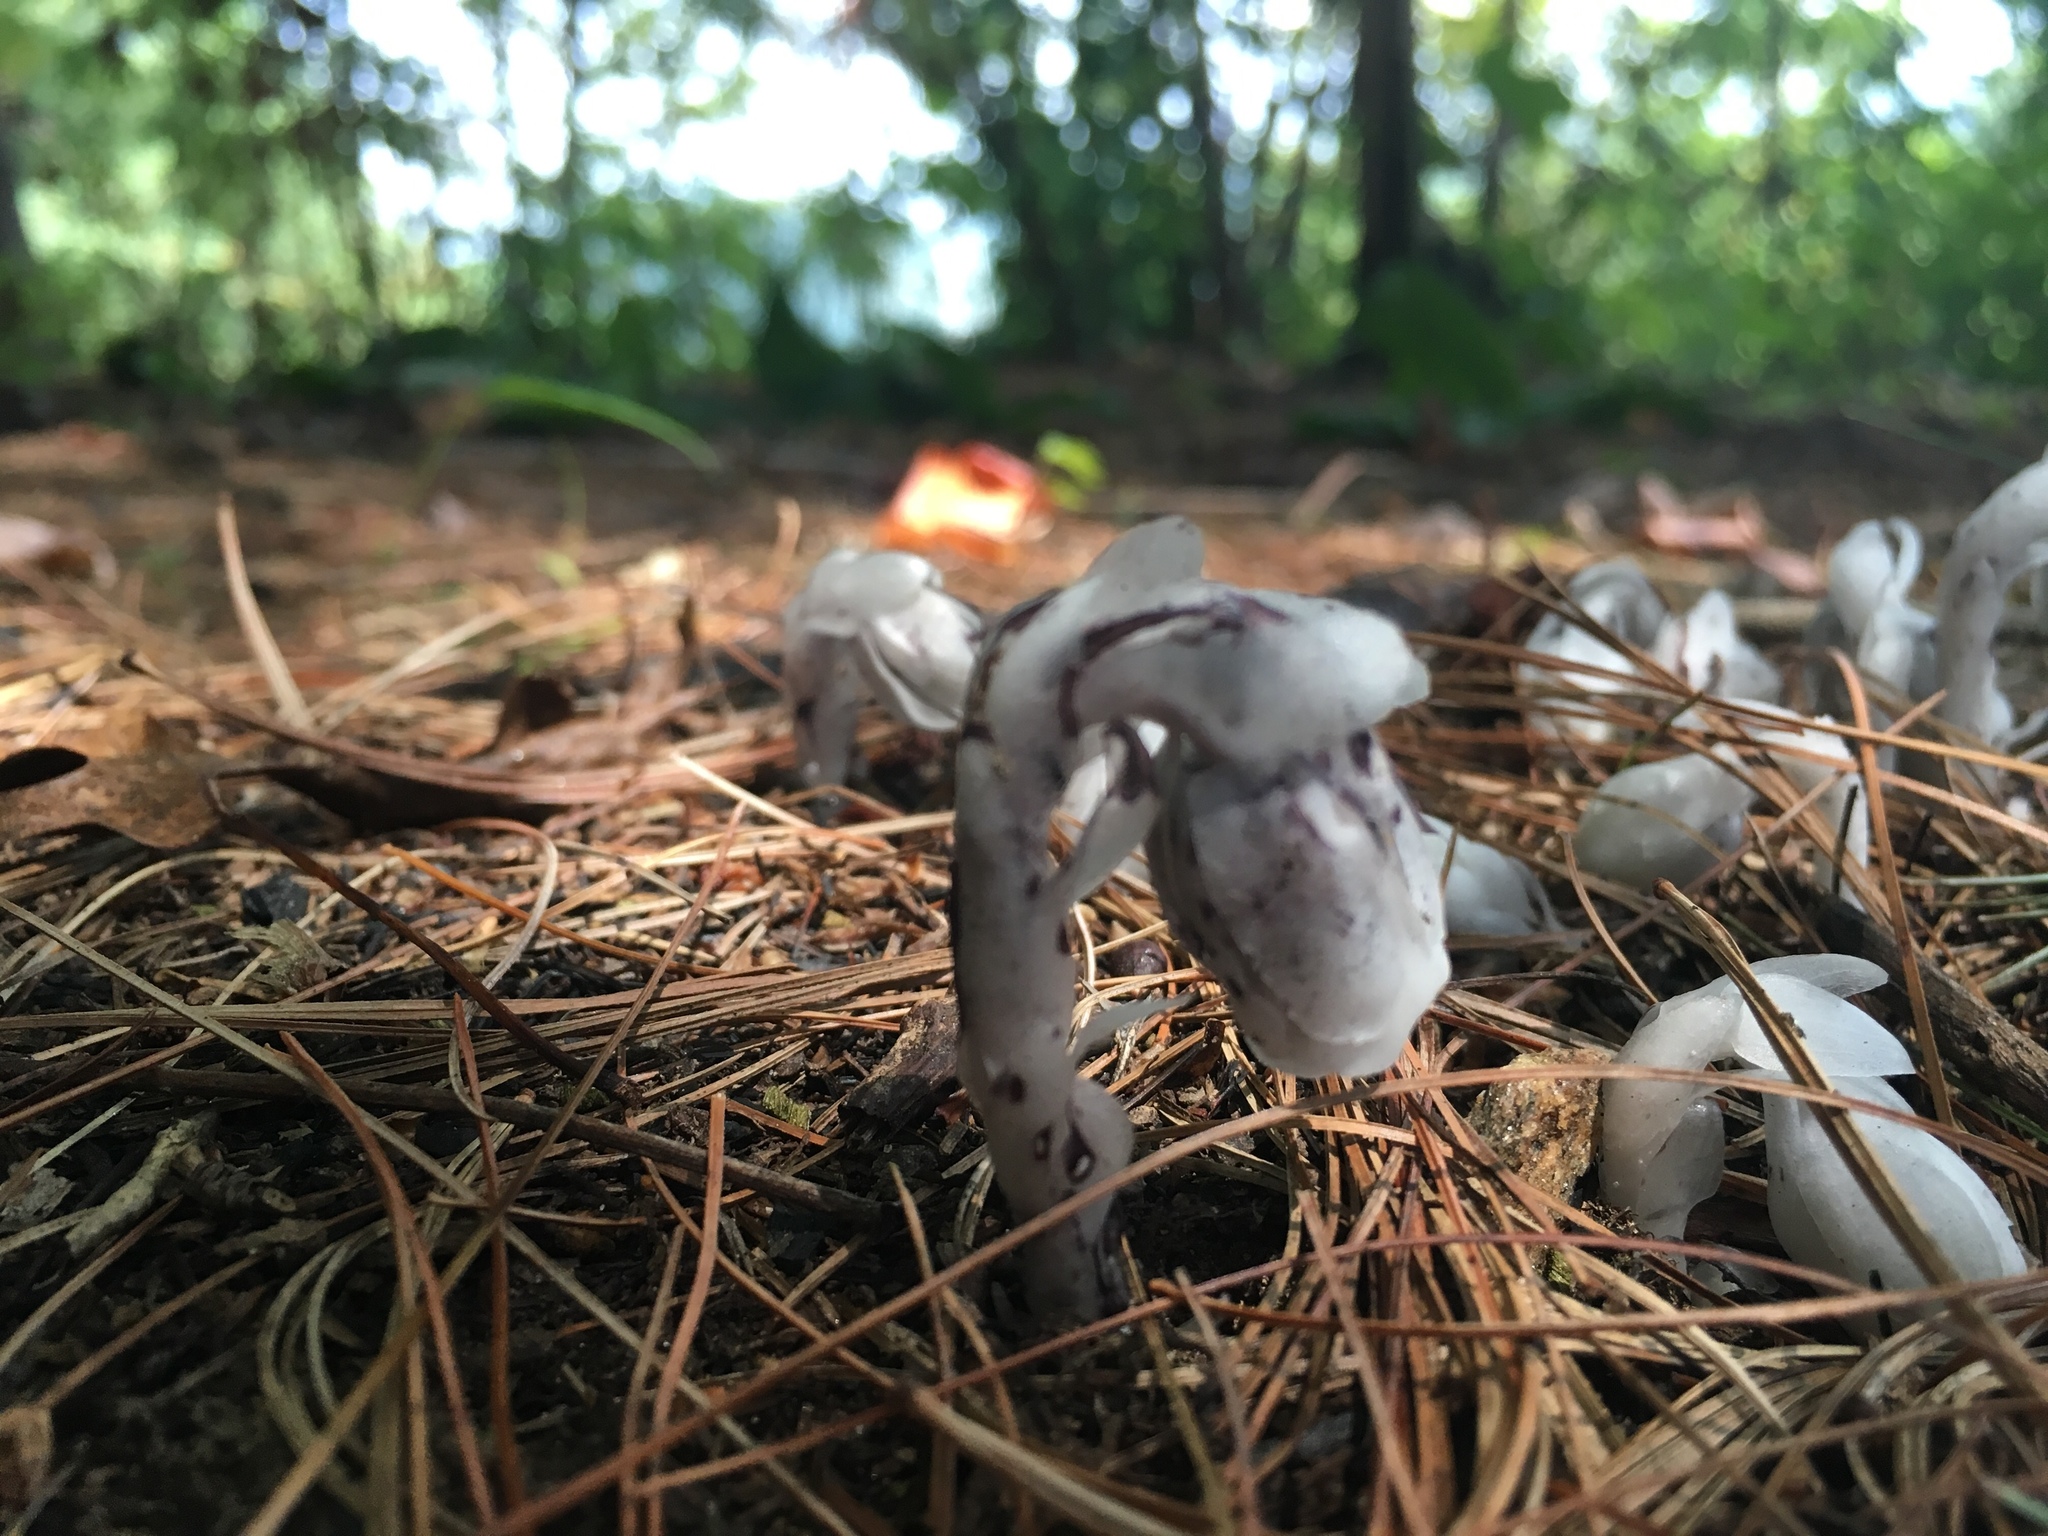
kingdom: Plantae
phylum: Tracheophyta
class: Magnoliopsida
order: Ericales
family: Ericaceae
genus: Monotropa
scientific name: Monotropa uniflora
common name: Convulsion root
